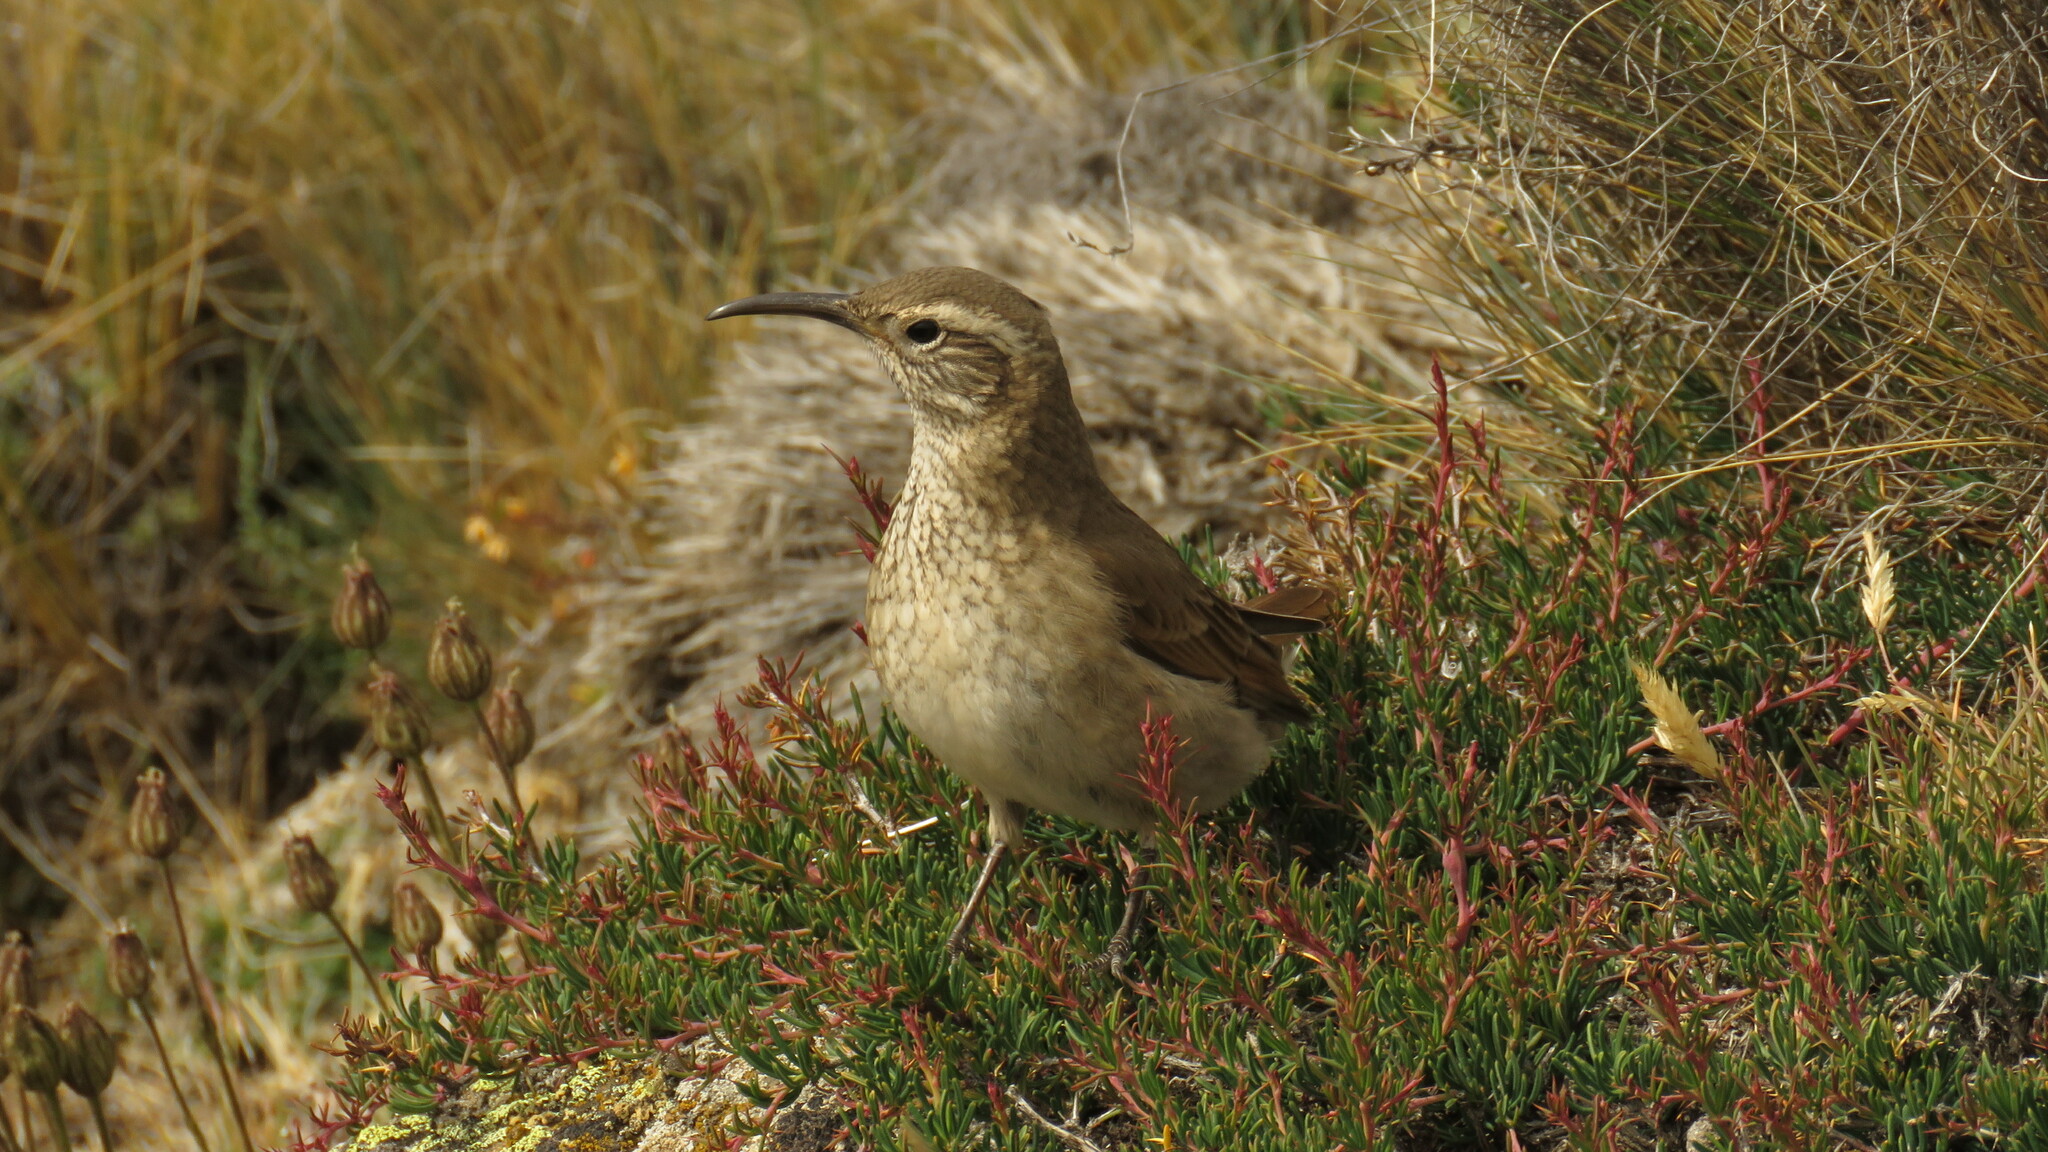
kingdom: Animalia
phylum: Chordata
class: Aves
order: Passeriformes
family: Furnariidae
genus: Upucerthia
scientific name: Upucerthia dumetaria
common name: Scale-throated earthcreeper
